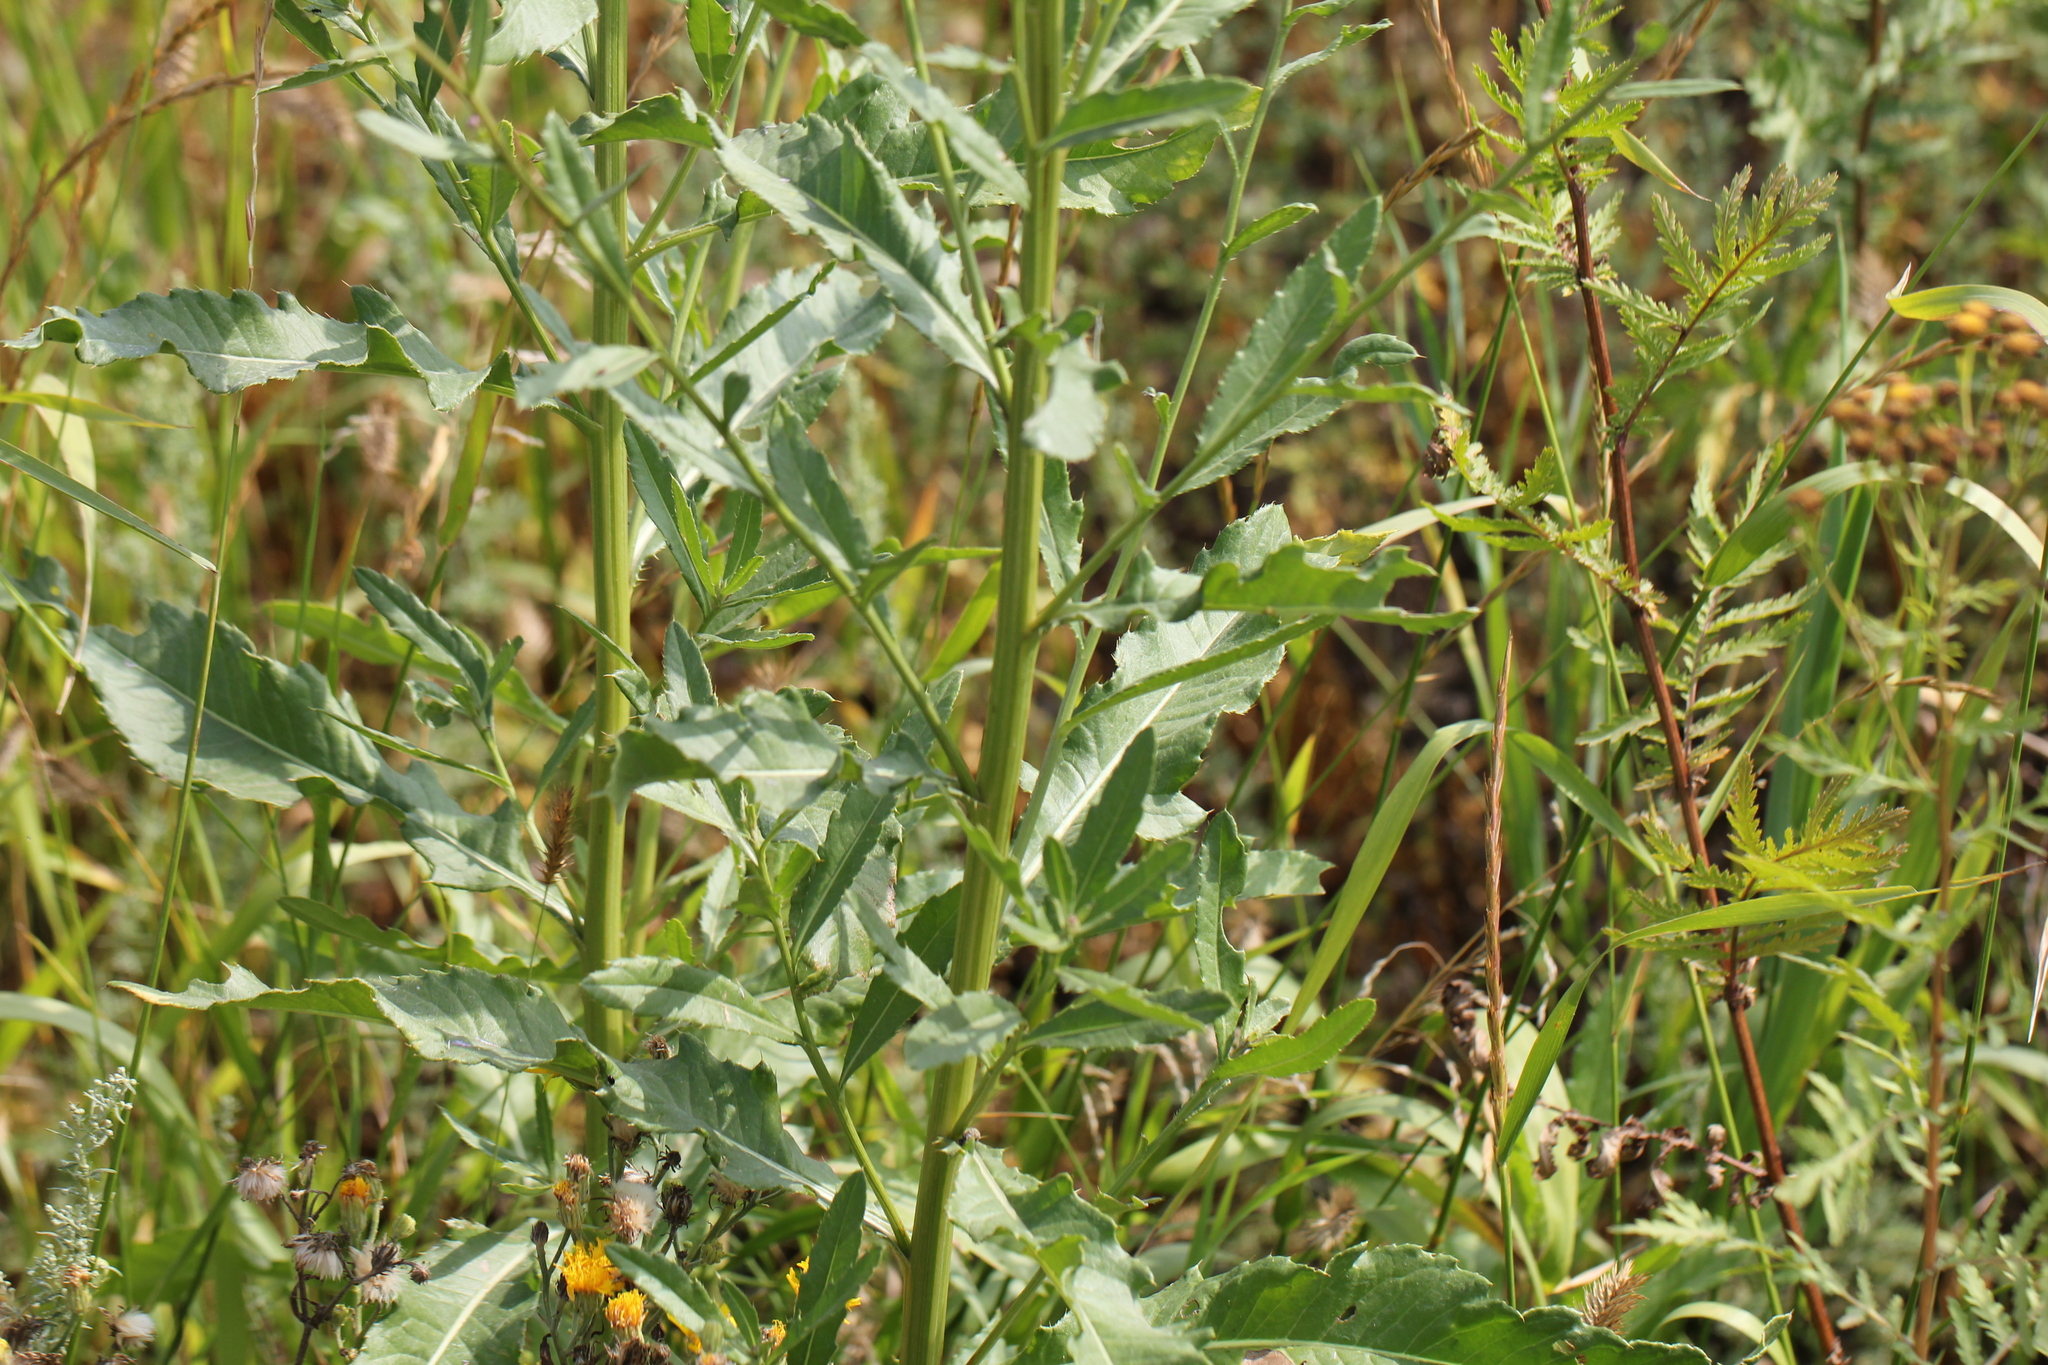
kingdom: Plantae
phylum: Tracheophyta
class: Magnoliopsida
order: Asterales
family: Asteraceae
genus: Cirsium
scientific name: Cirsium arvense
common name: Creeping thistle
